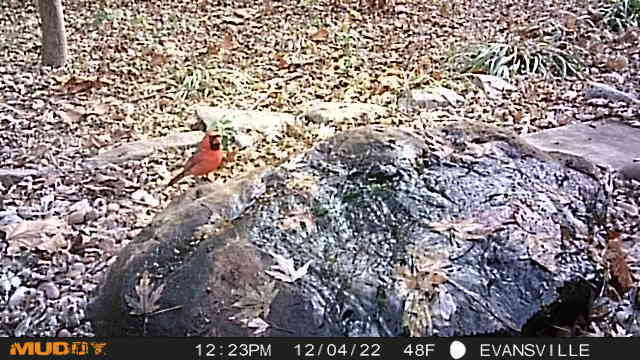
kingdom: Animalia
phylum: Chordata
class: Aves
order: Passeriformes
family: Cardinalidae
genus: Cardinalis
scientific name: Cardinalis cardinalis
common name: Northern cardinal
